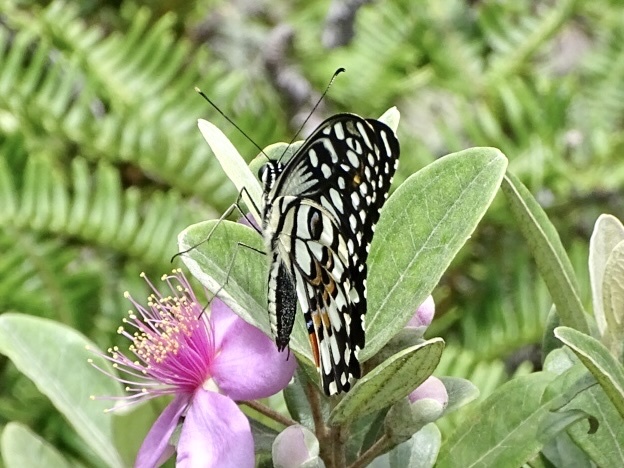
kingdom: Animalia
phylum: Arthropoda
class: Insecta
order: Lepidoptera
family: Papilionidae
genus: Papilio
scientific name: Papilio demoleus
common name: Lime butterfly
